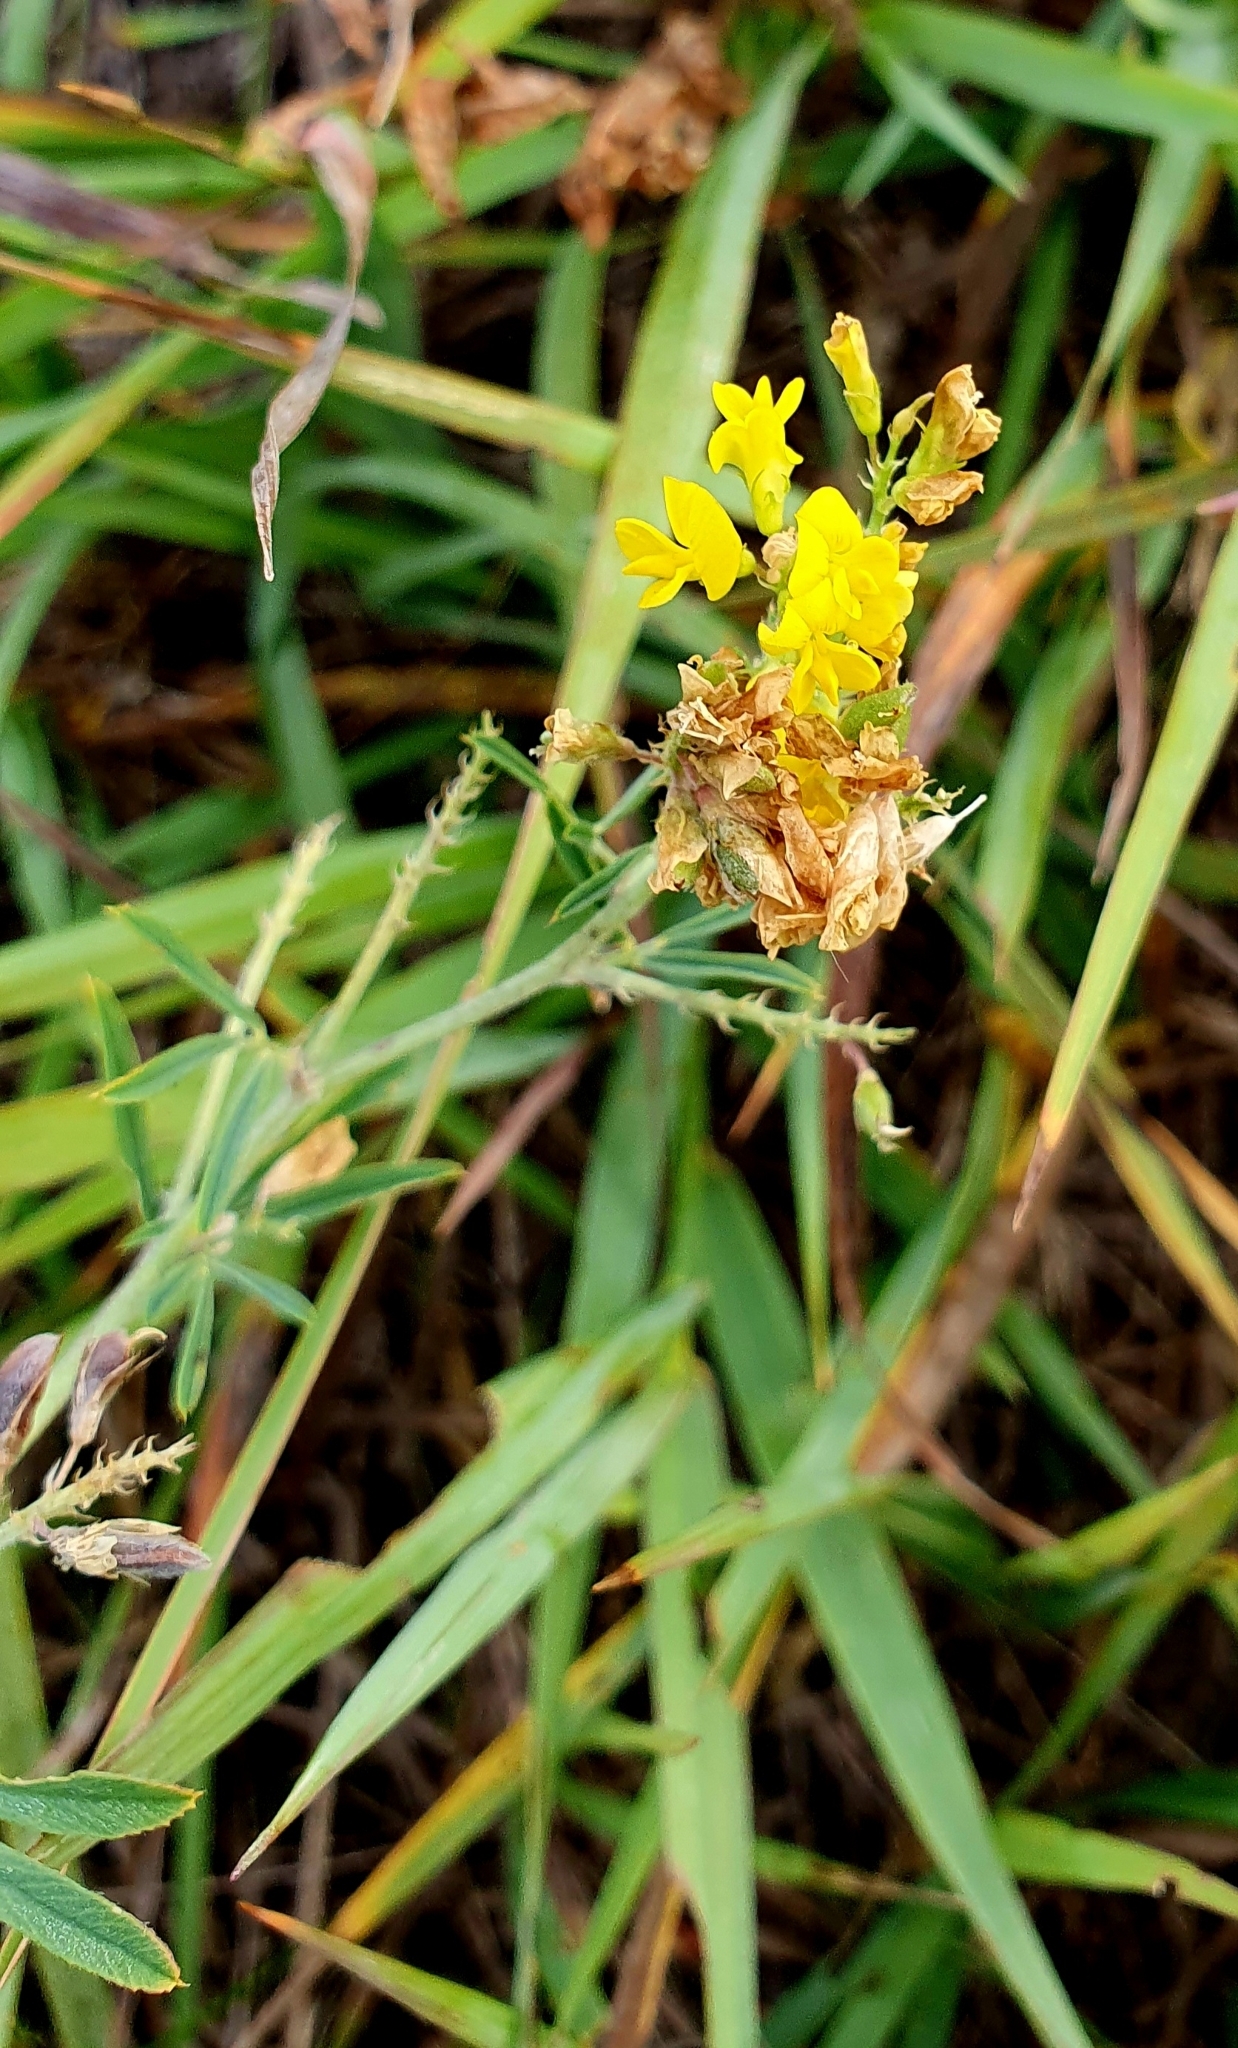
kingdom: Plantae
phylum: Tracheophyta
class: Magnoliopsida
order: Fabales
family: Fabaceae
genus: Medicago
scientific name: Medicago falcata
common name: Sickle medick
